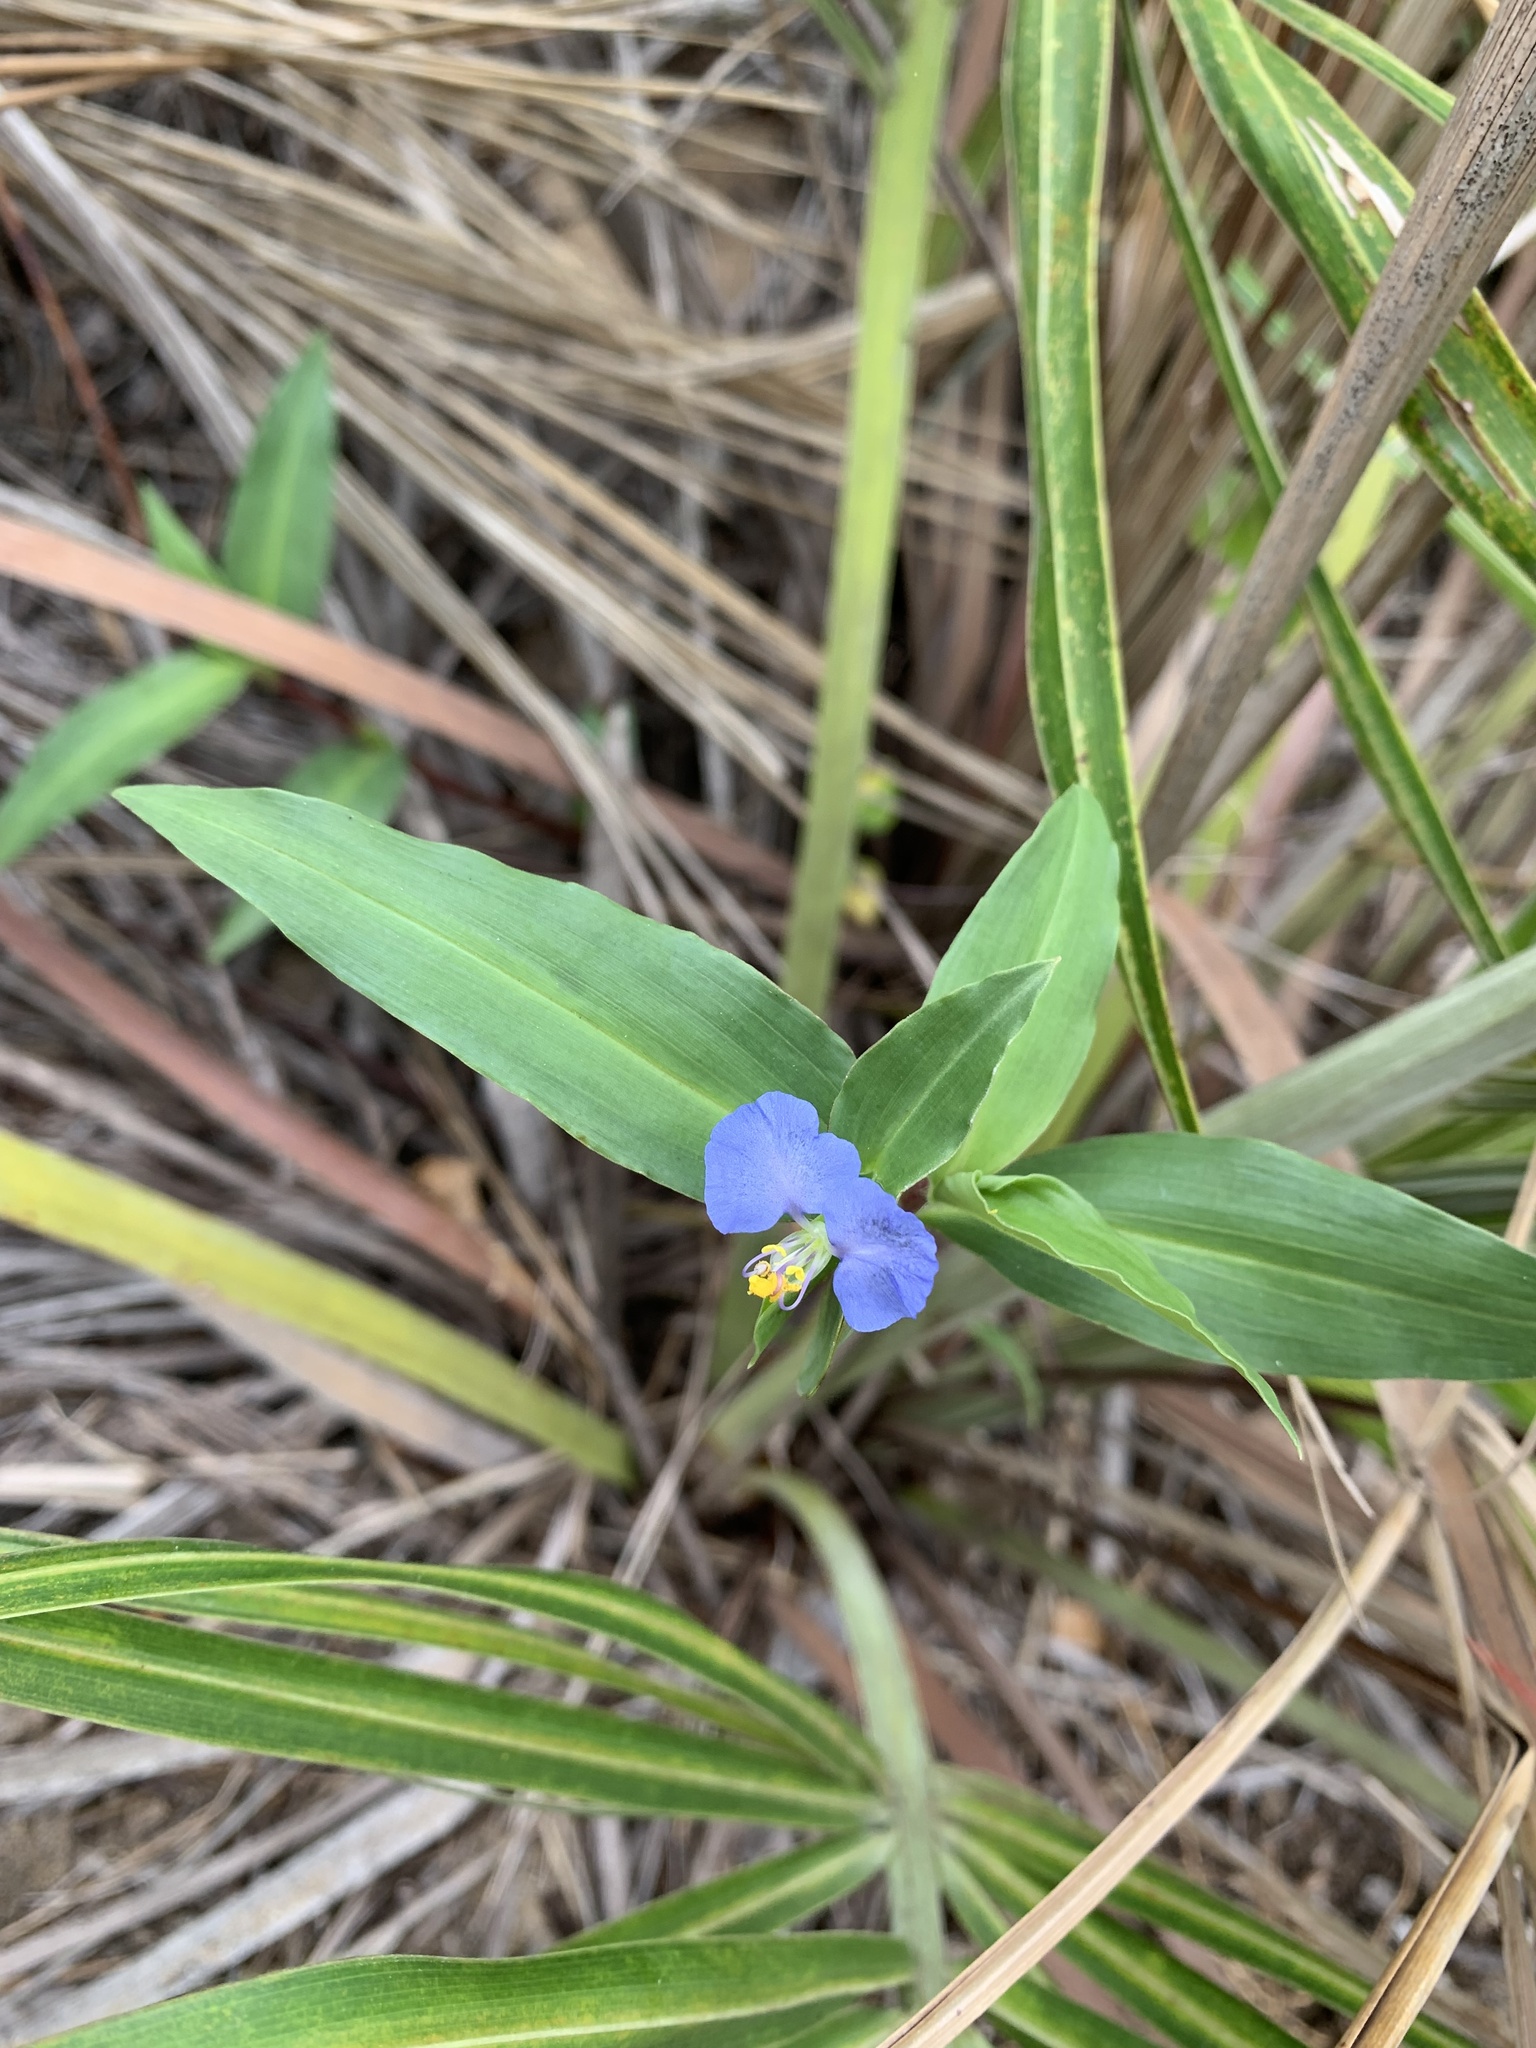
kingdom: Plantae
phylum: Tracheophyta
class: Liliopsida
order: Commelinales
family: Commelinaceae
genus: Commelina
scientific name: Commelina erecta
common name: Blousel blommetjie
